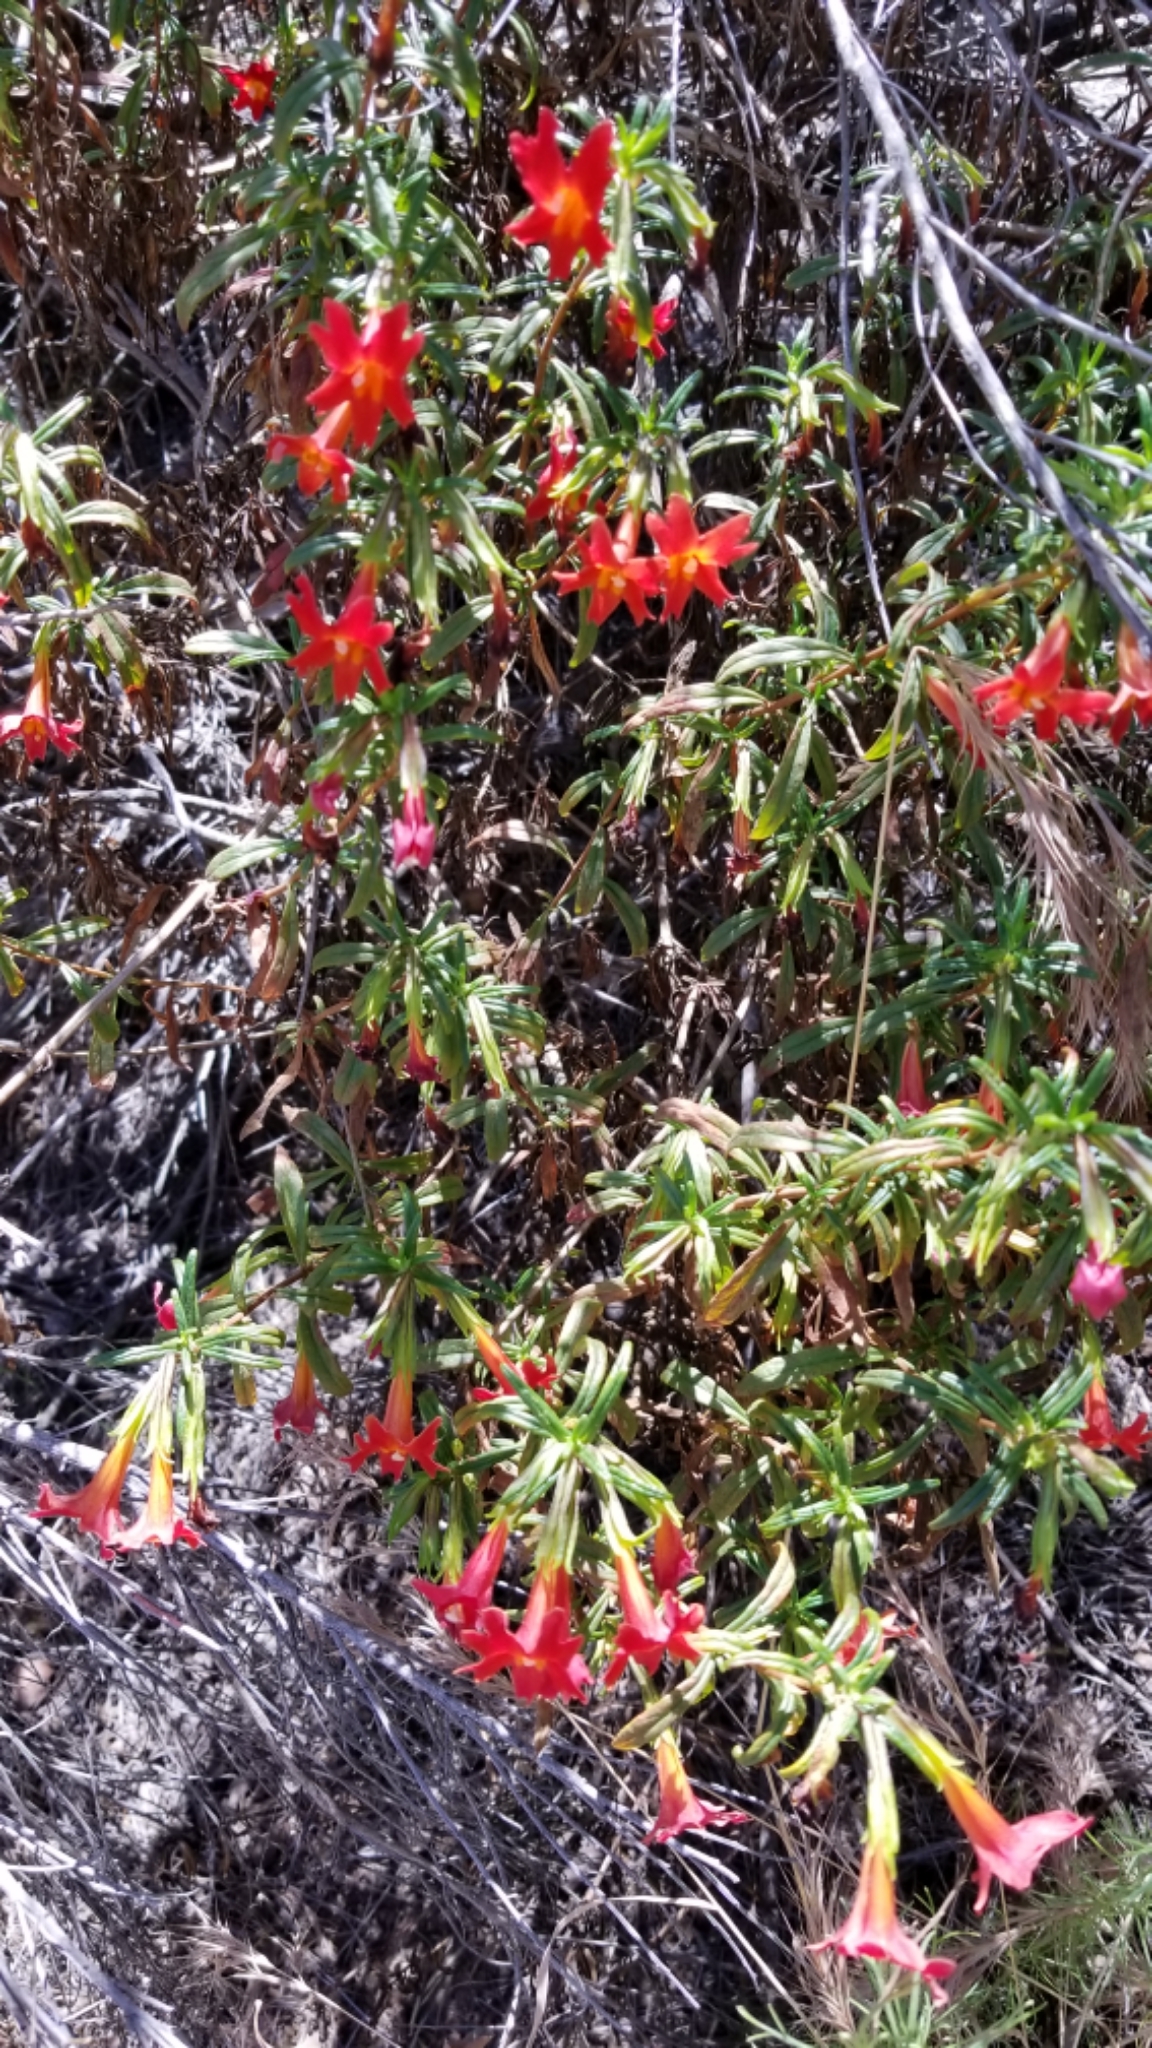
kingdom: Plantae
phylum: Tracheophyta
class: Magnoliopsida
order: Lamiales
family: Phrymaceae
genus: Diplacus
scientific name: Diplacus puniceus
